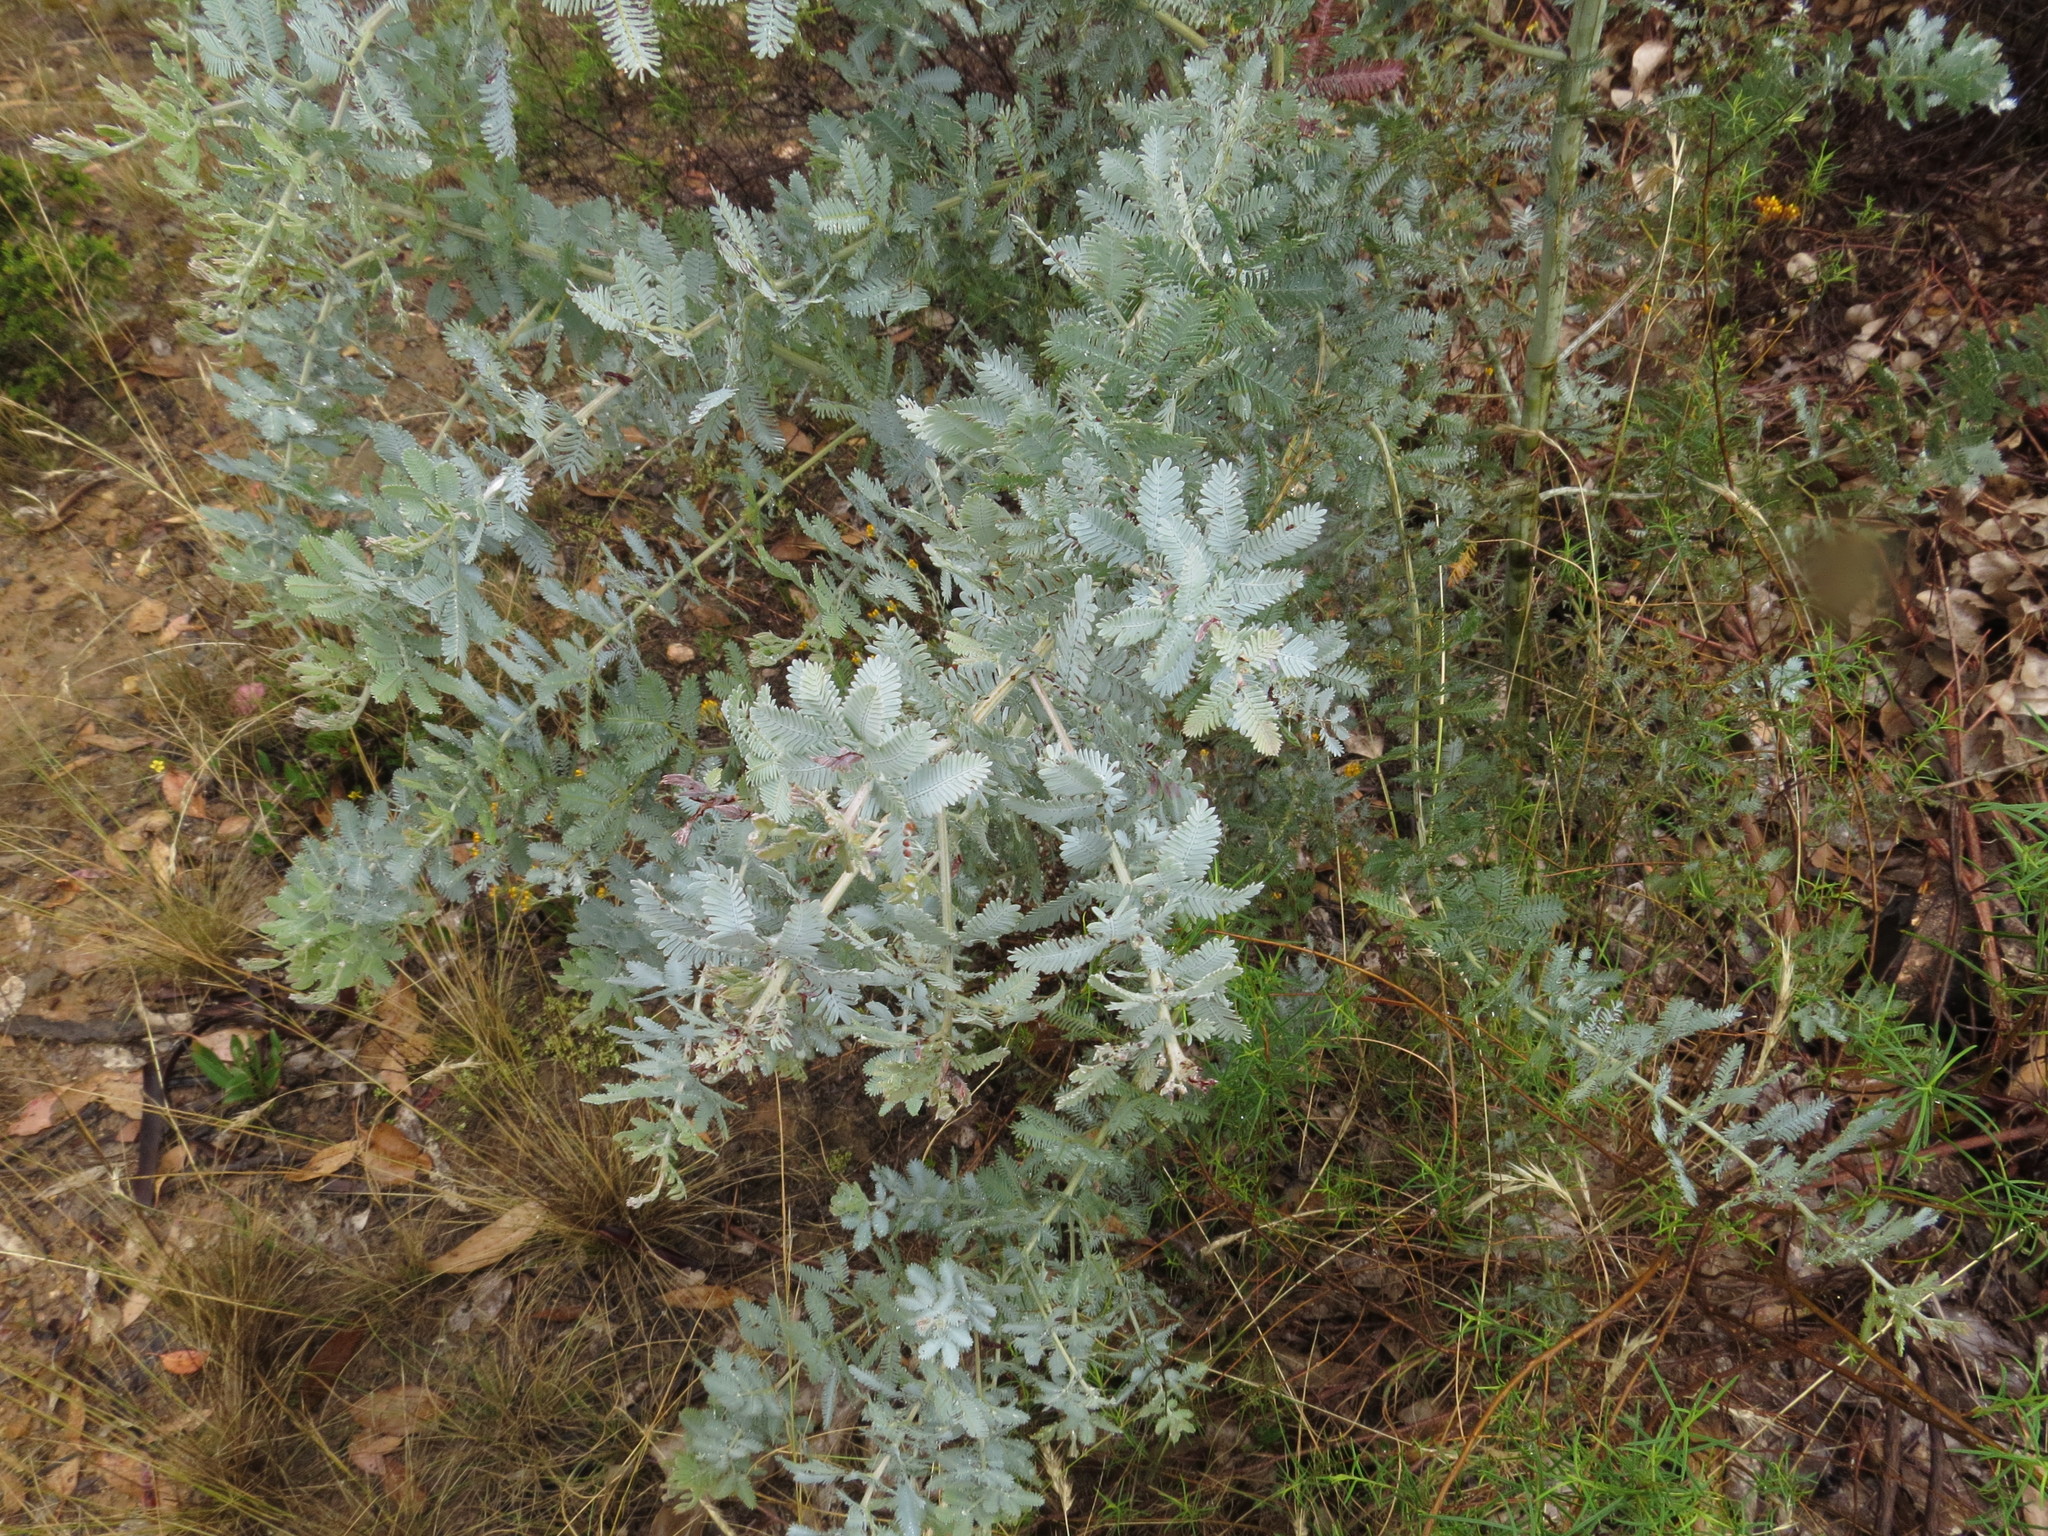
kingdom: Plantae
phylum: Tracheophyta
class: Magnoliopsida
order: Fabales
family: Fabaceae
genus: Acacia
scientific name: Acacia baileyana
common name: Cootamundra wattle
